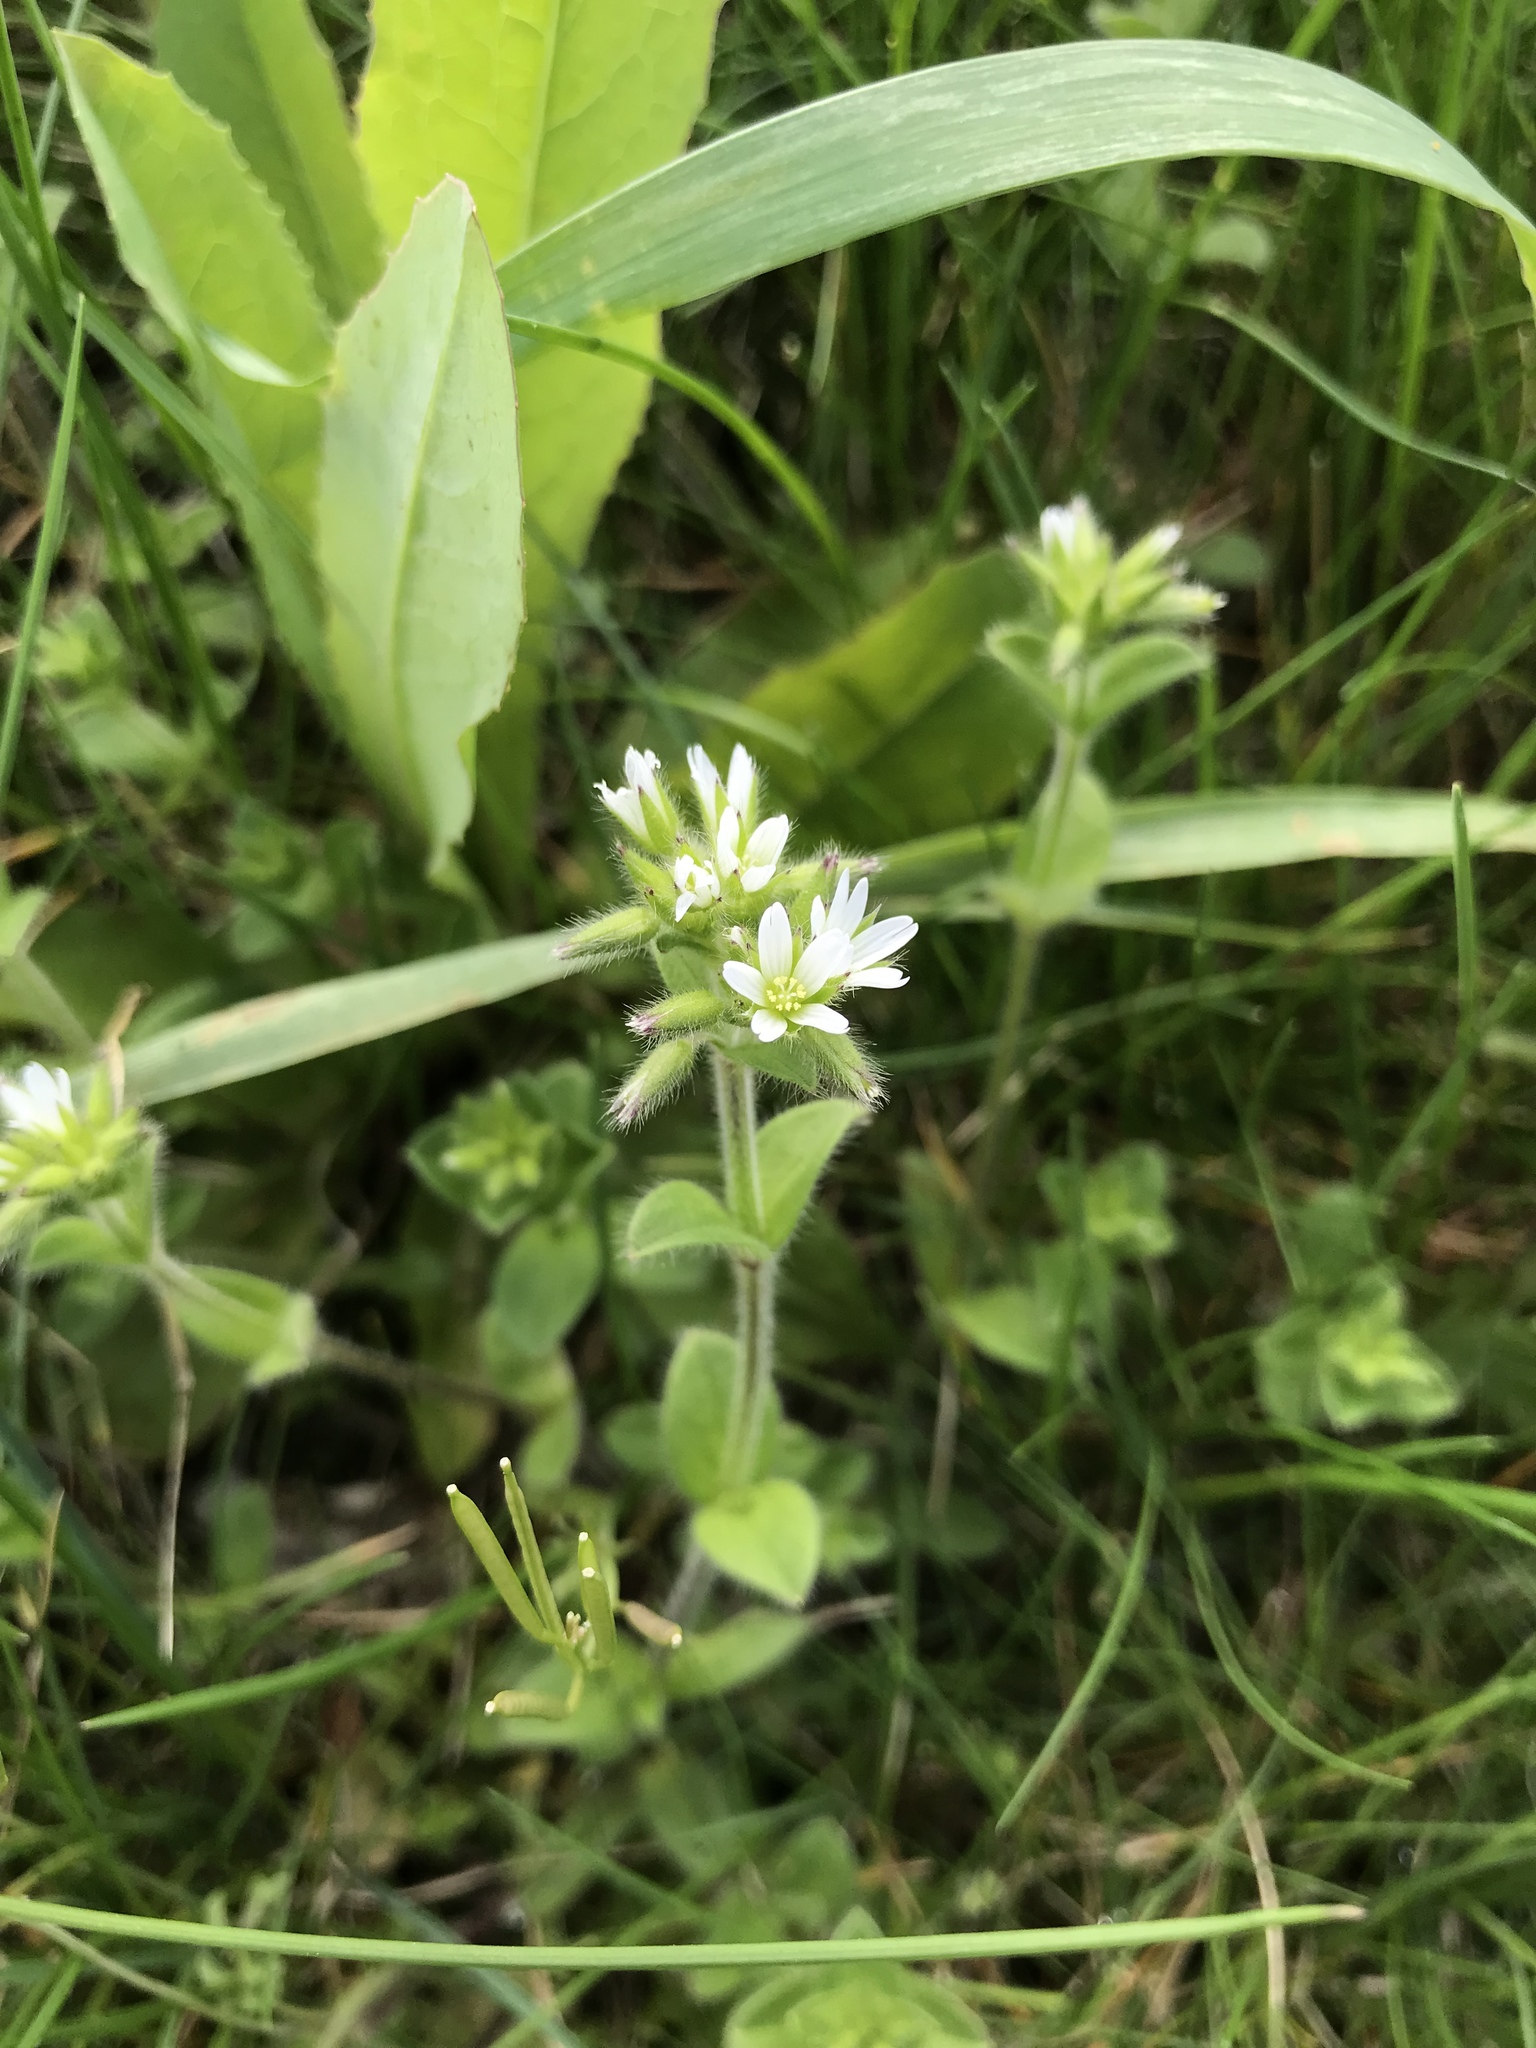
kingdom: Plantae
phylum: Tracheophyta
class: Magnoliopsida
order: Caryophyllales
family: Caryophyllaceae
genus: Cerastium
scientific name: Cerastium fontanum
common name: Common mouse-ear
